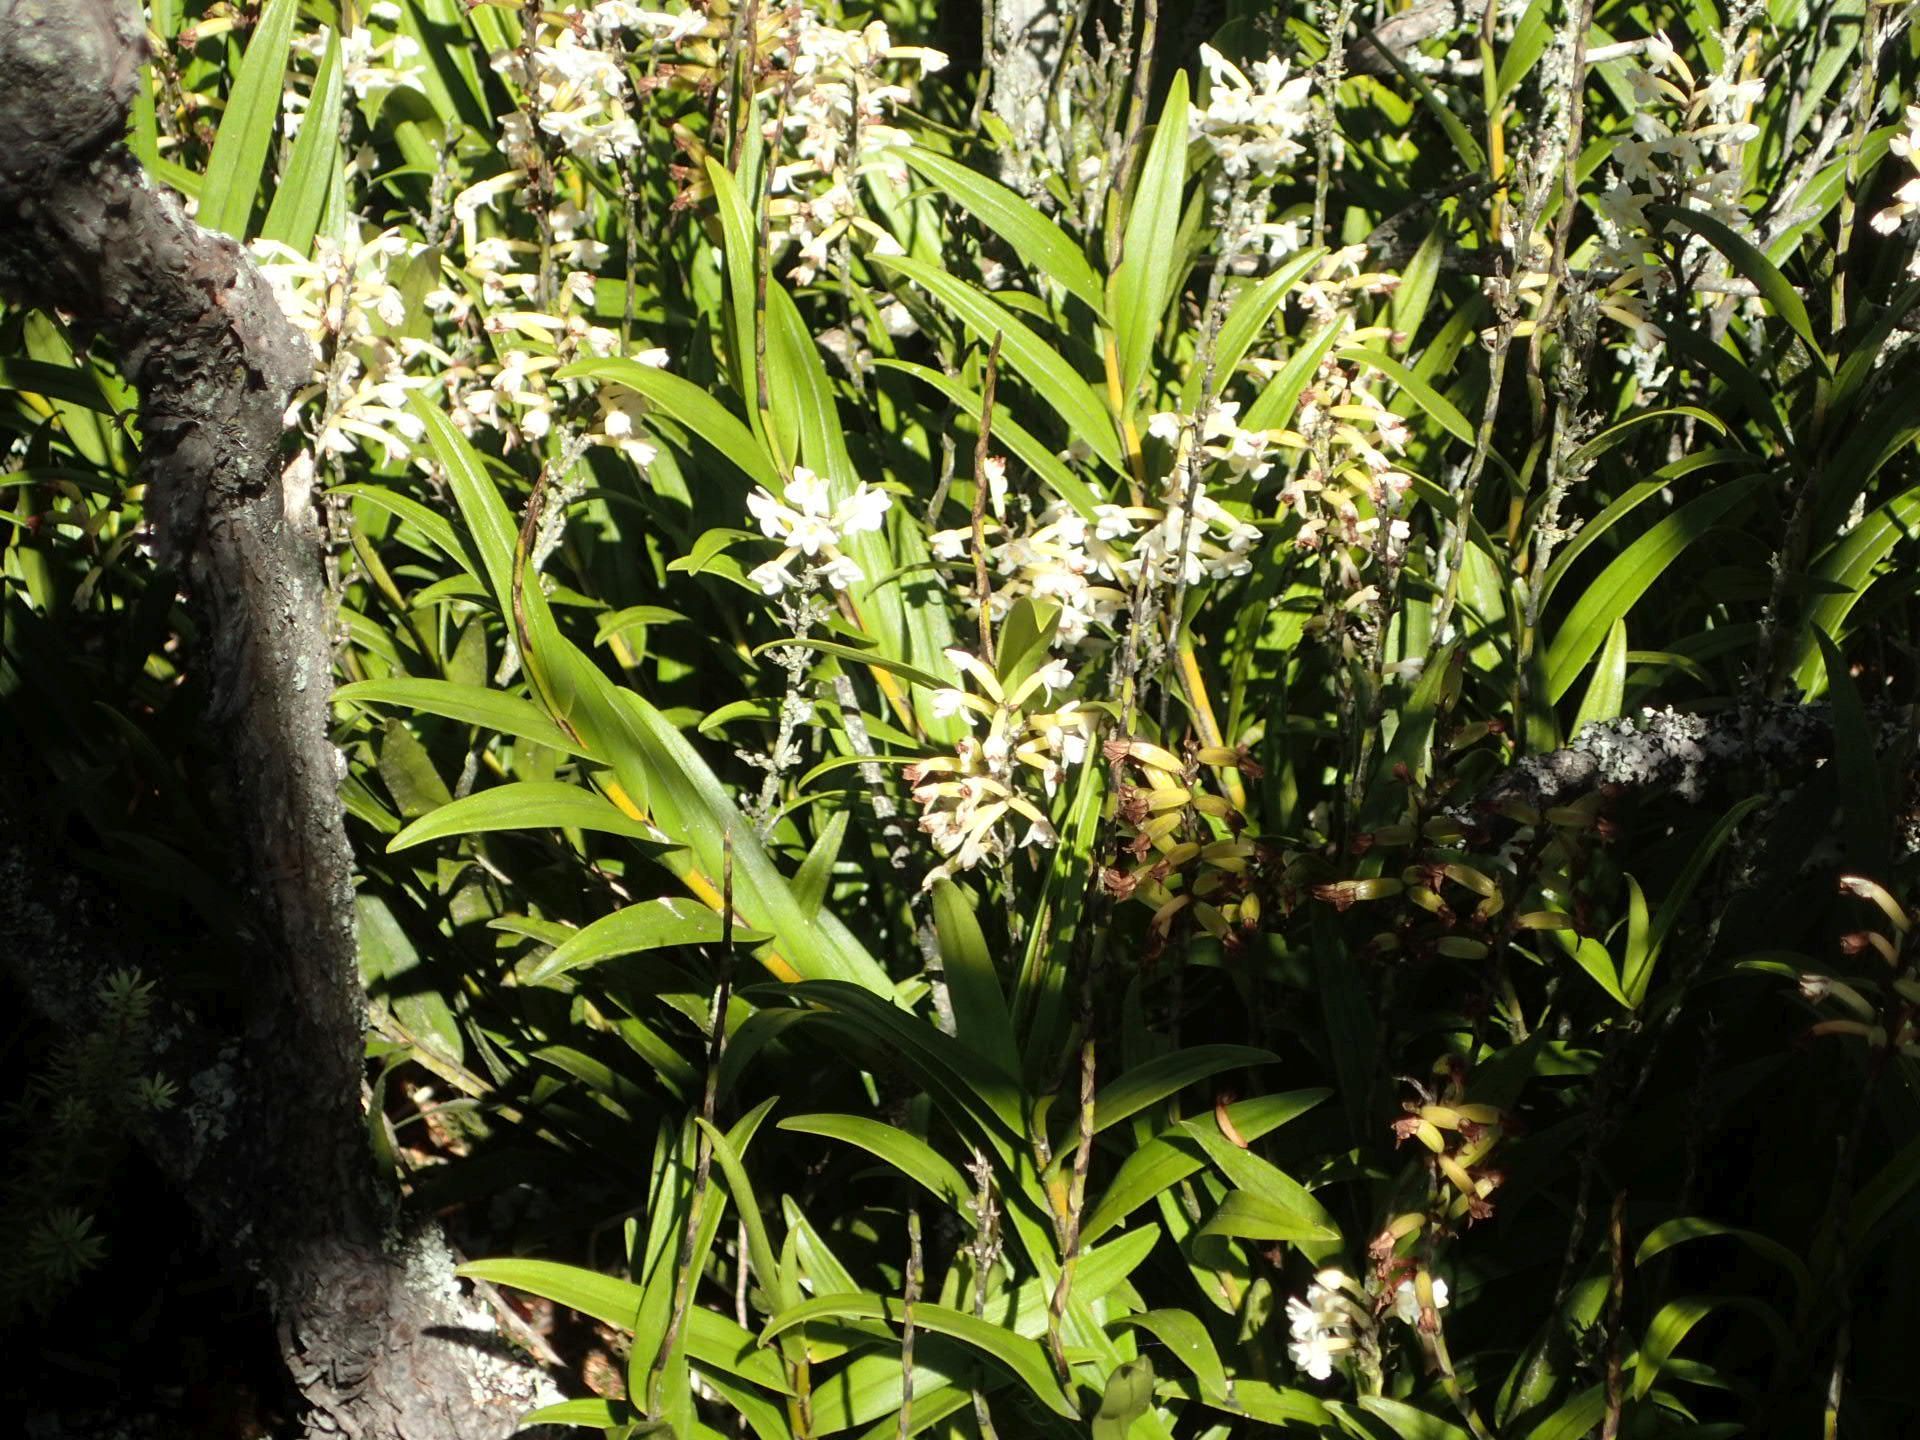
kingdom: Plantae
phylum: Tracheophyta
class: Liliopsida
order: Asparagales
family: Orchidaceae
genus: Earina
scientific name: Earina autumnalis
